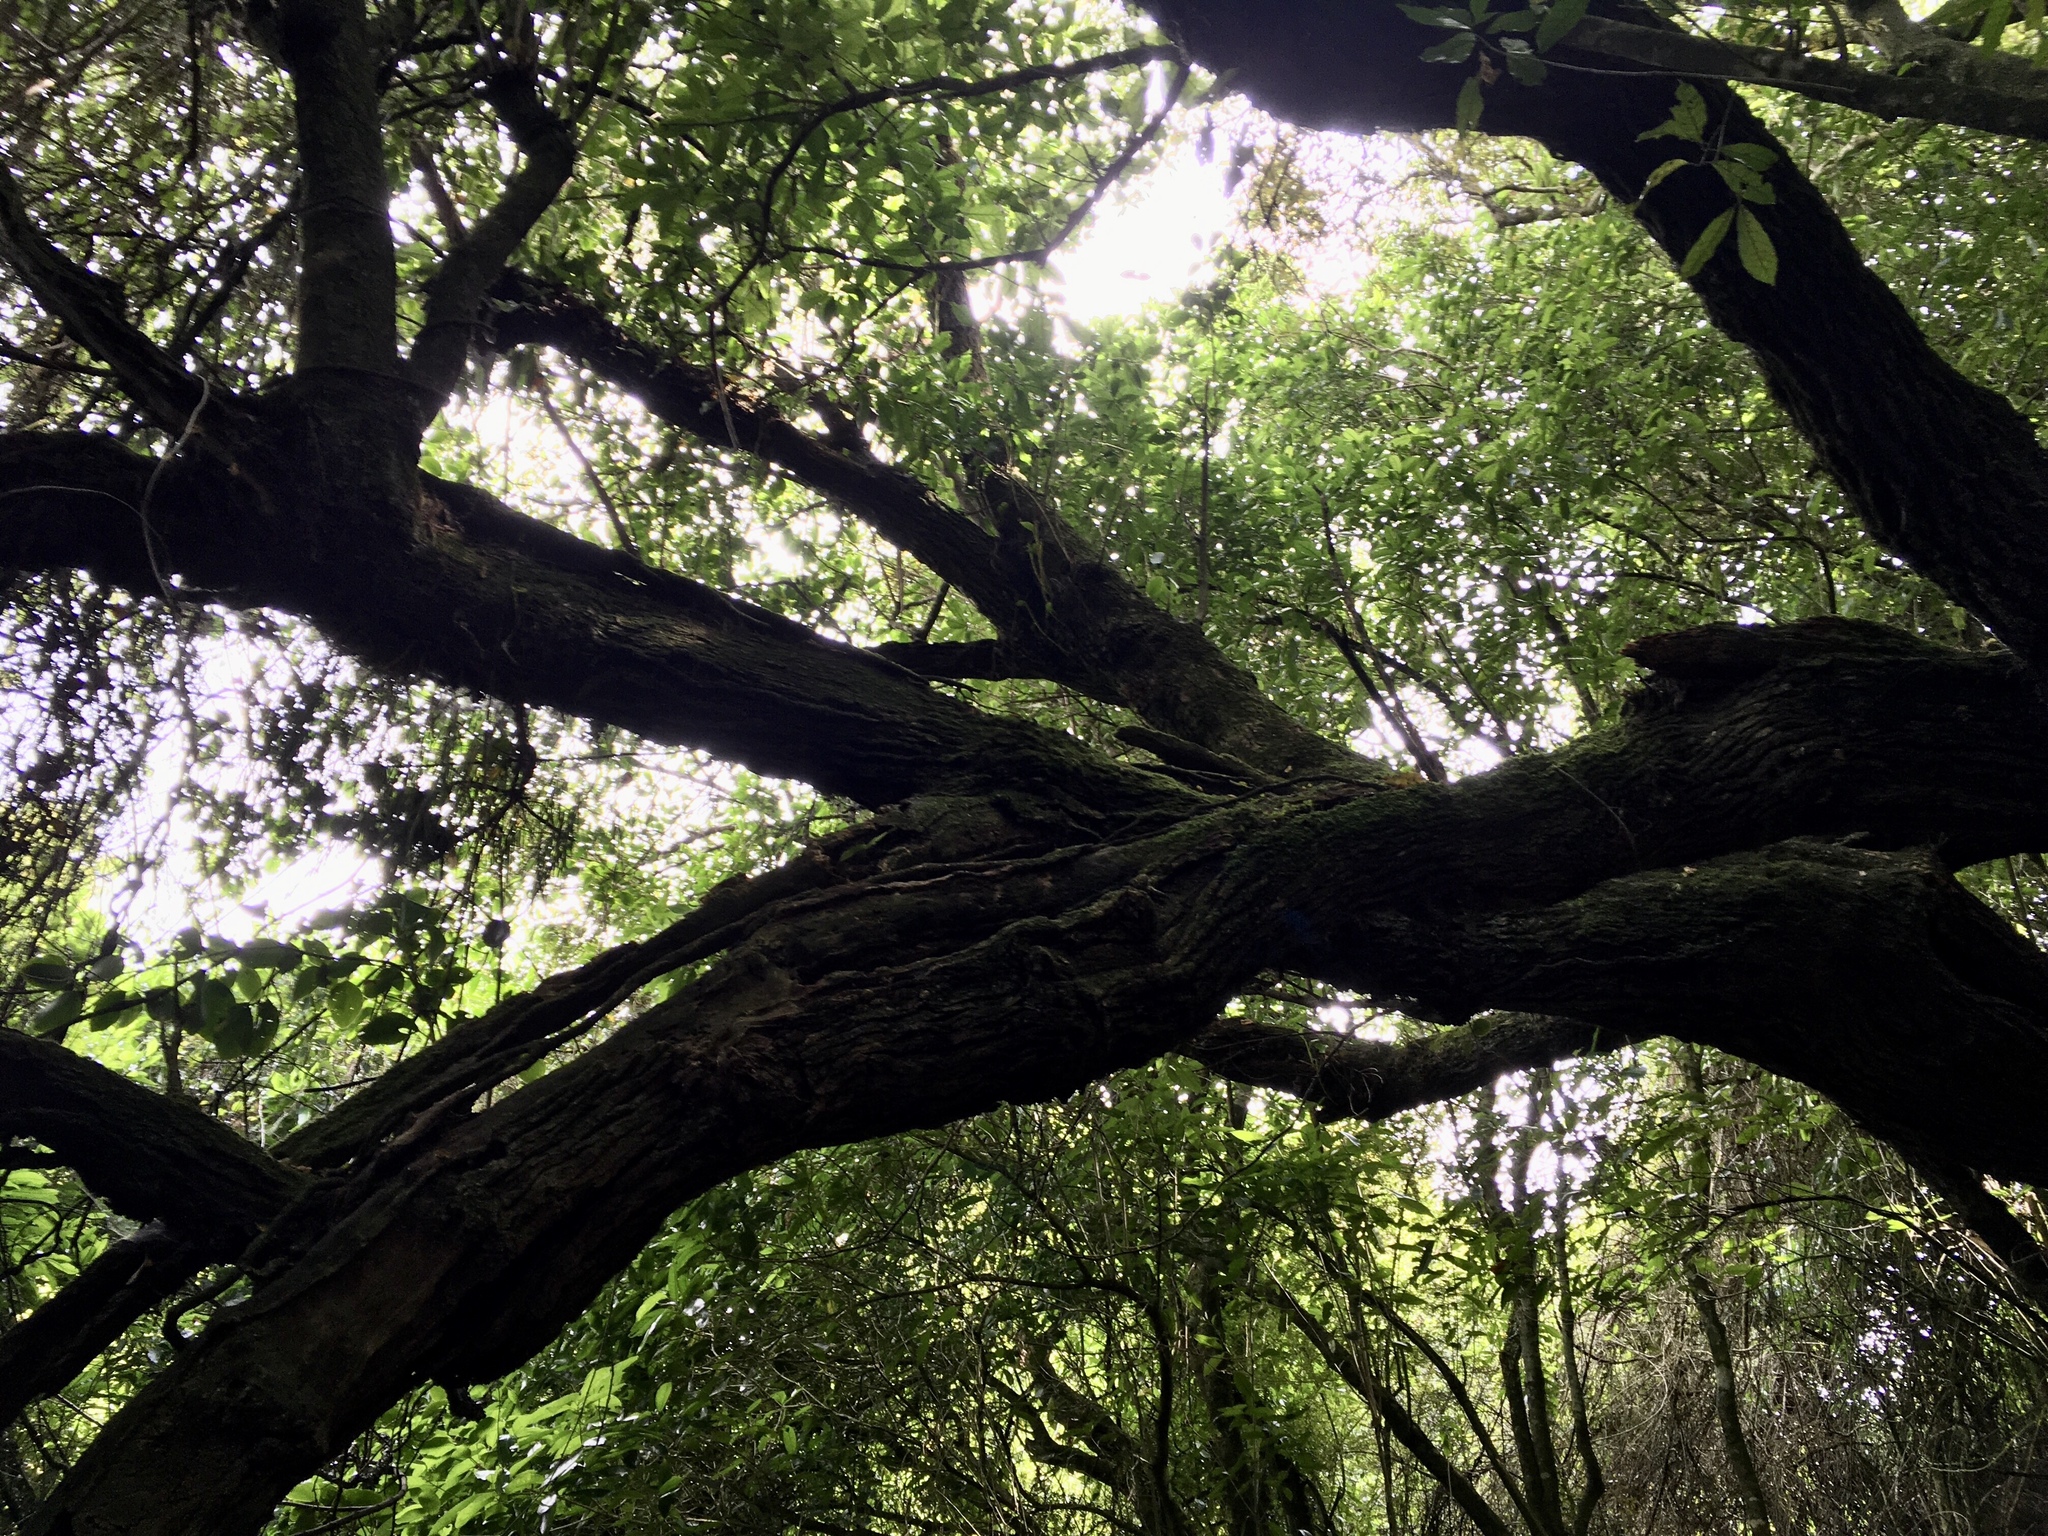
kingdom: Plantae
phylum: Tracheophyta
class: Magnoliopsida
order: Apiales
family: Griseliniaceae
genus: Griselinia
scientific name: Griselinia littoralis
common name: New zealand broadleaf
